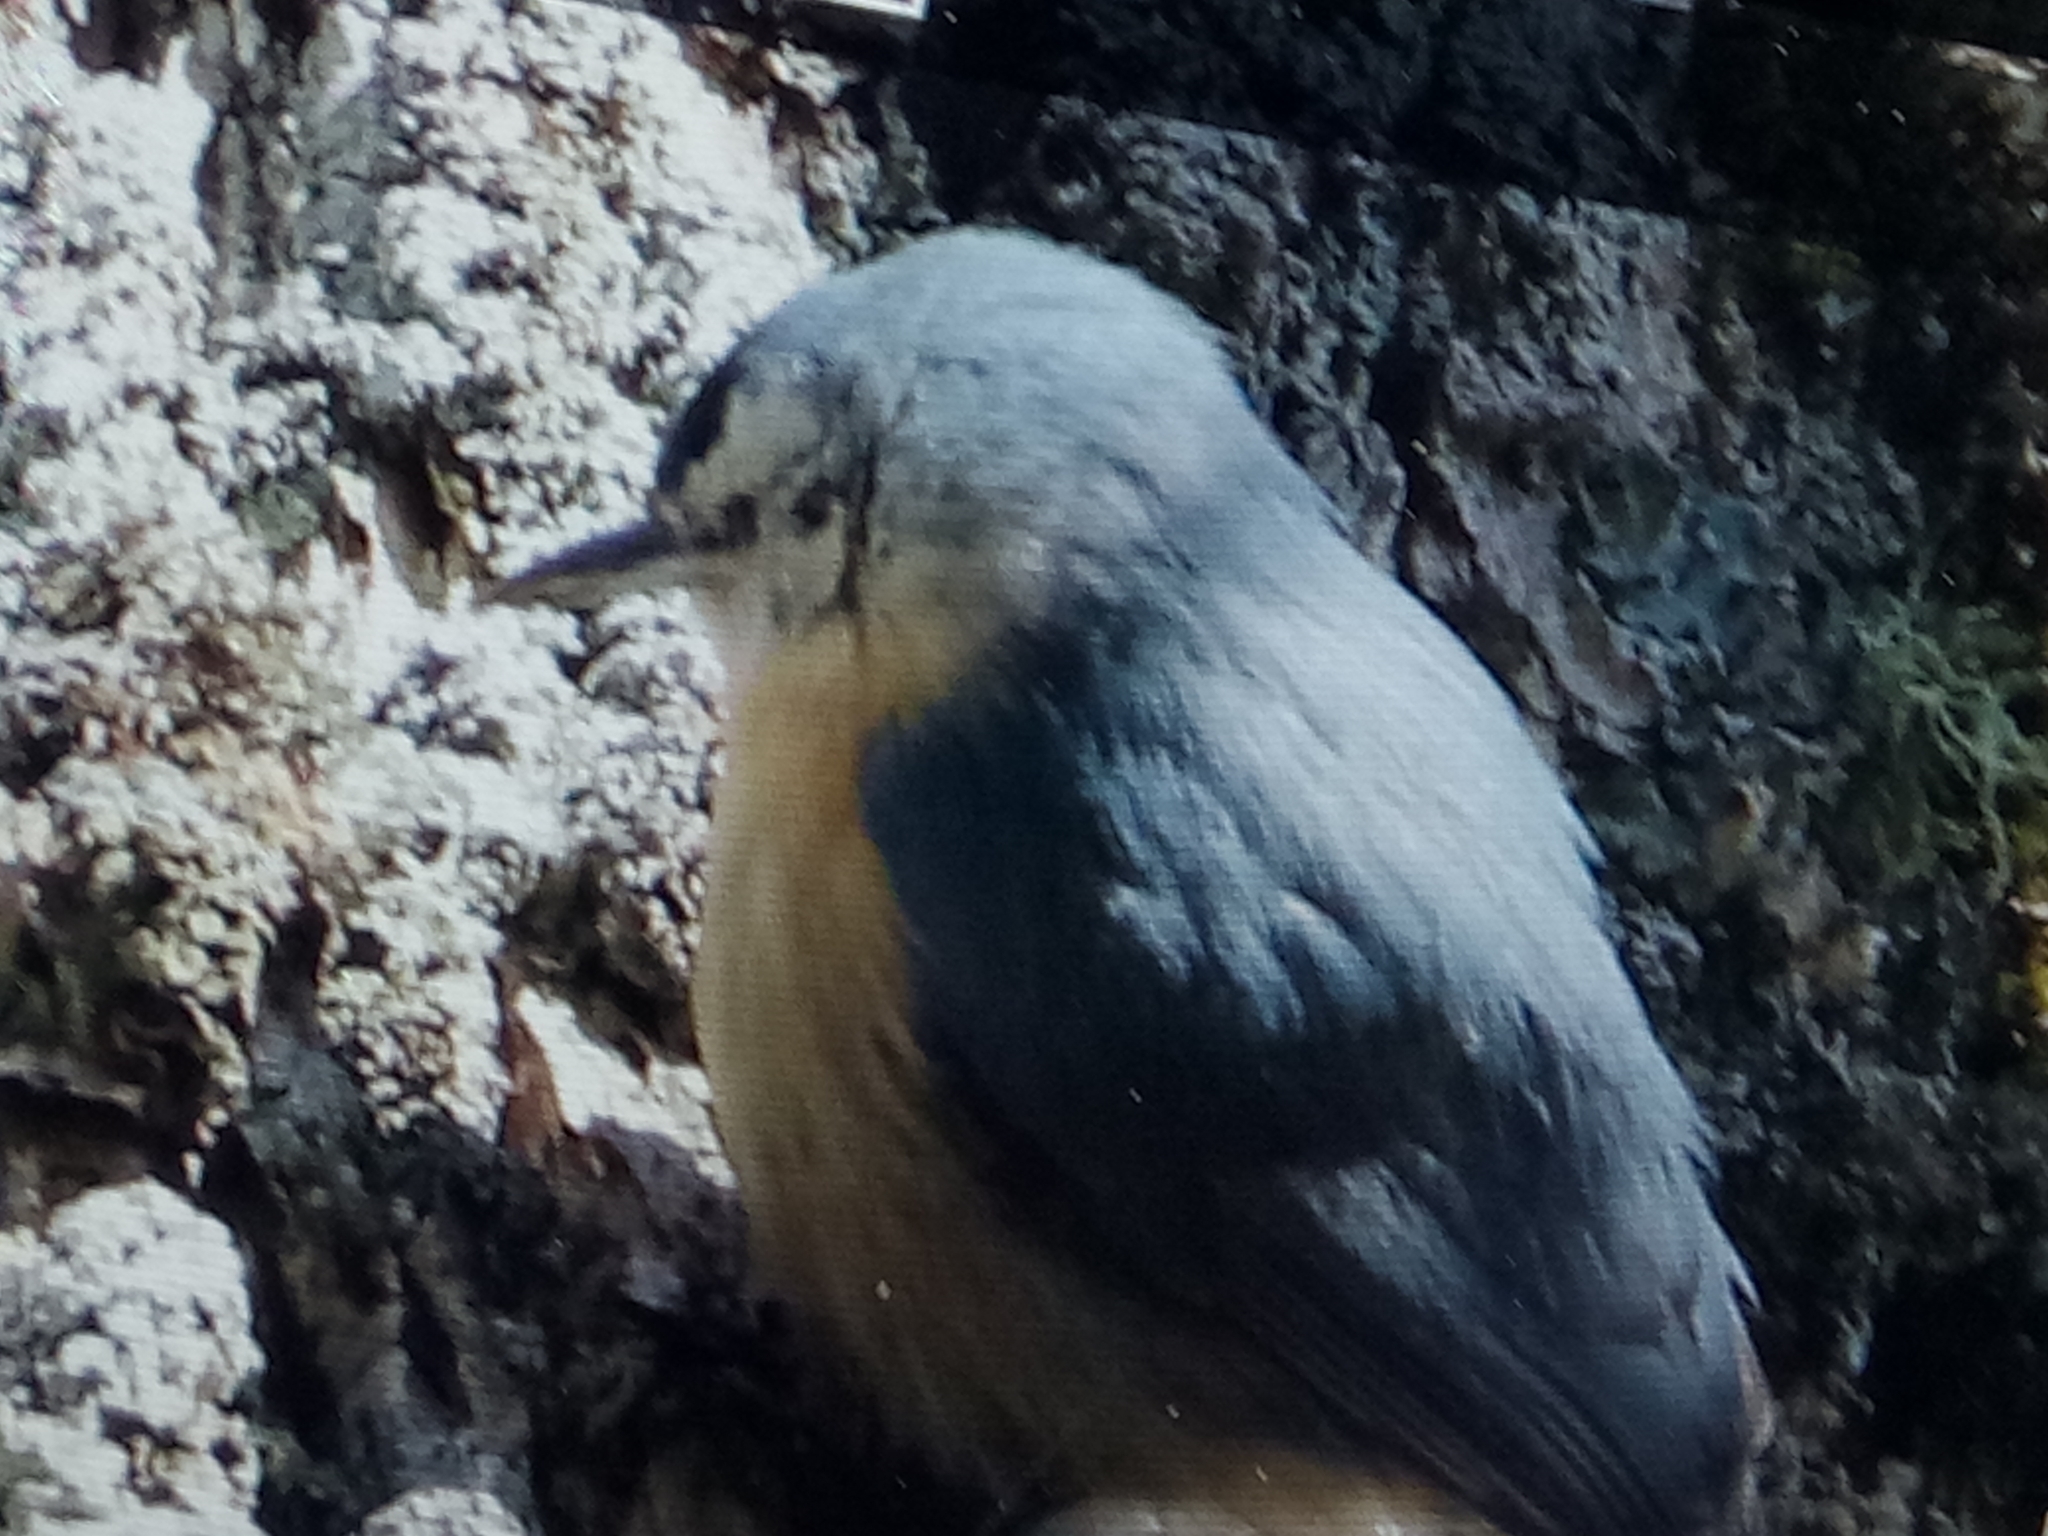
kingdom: Animalia
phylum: Chordata
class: Aves
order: Passeriformes
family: Sittidae
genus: Sitta
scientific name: Sitta ledanti
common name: Algerian nuthatch
